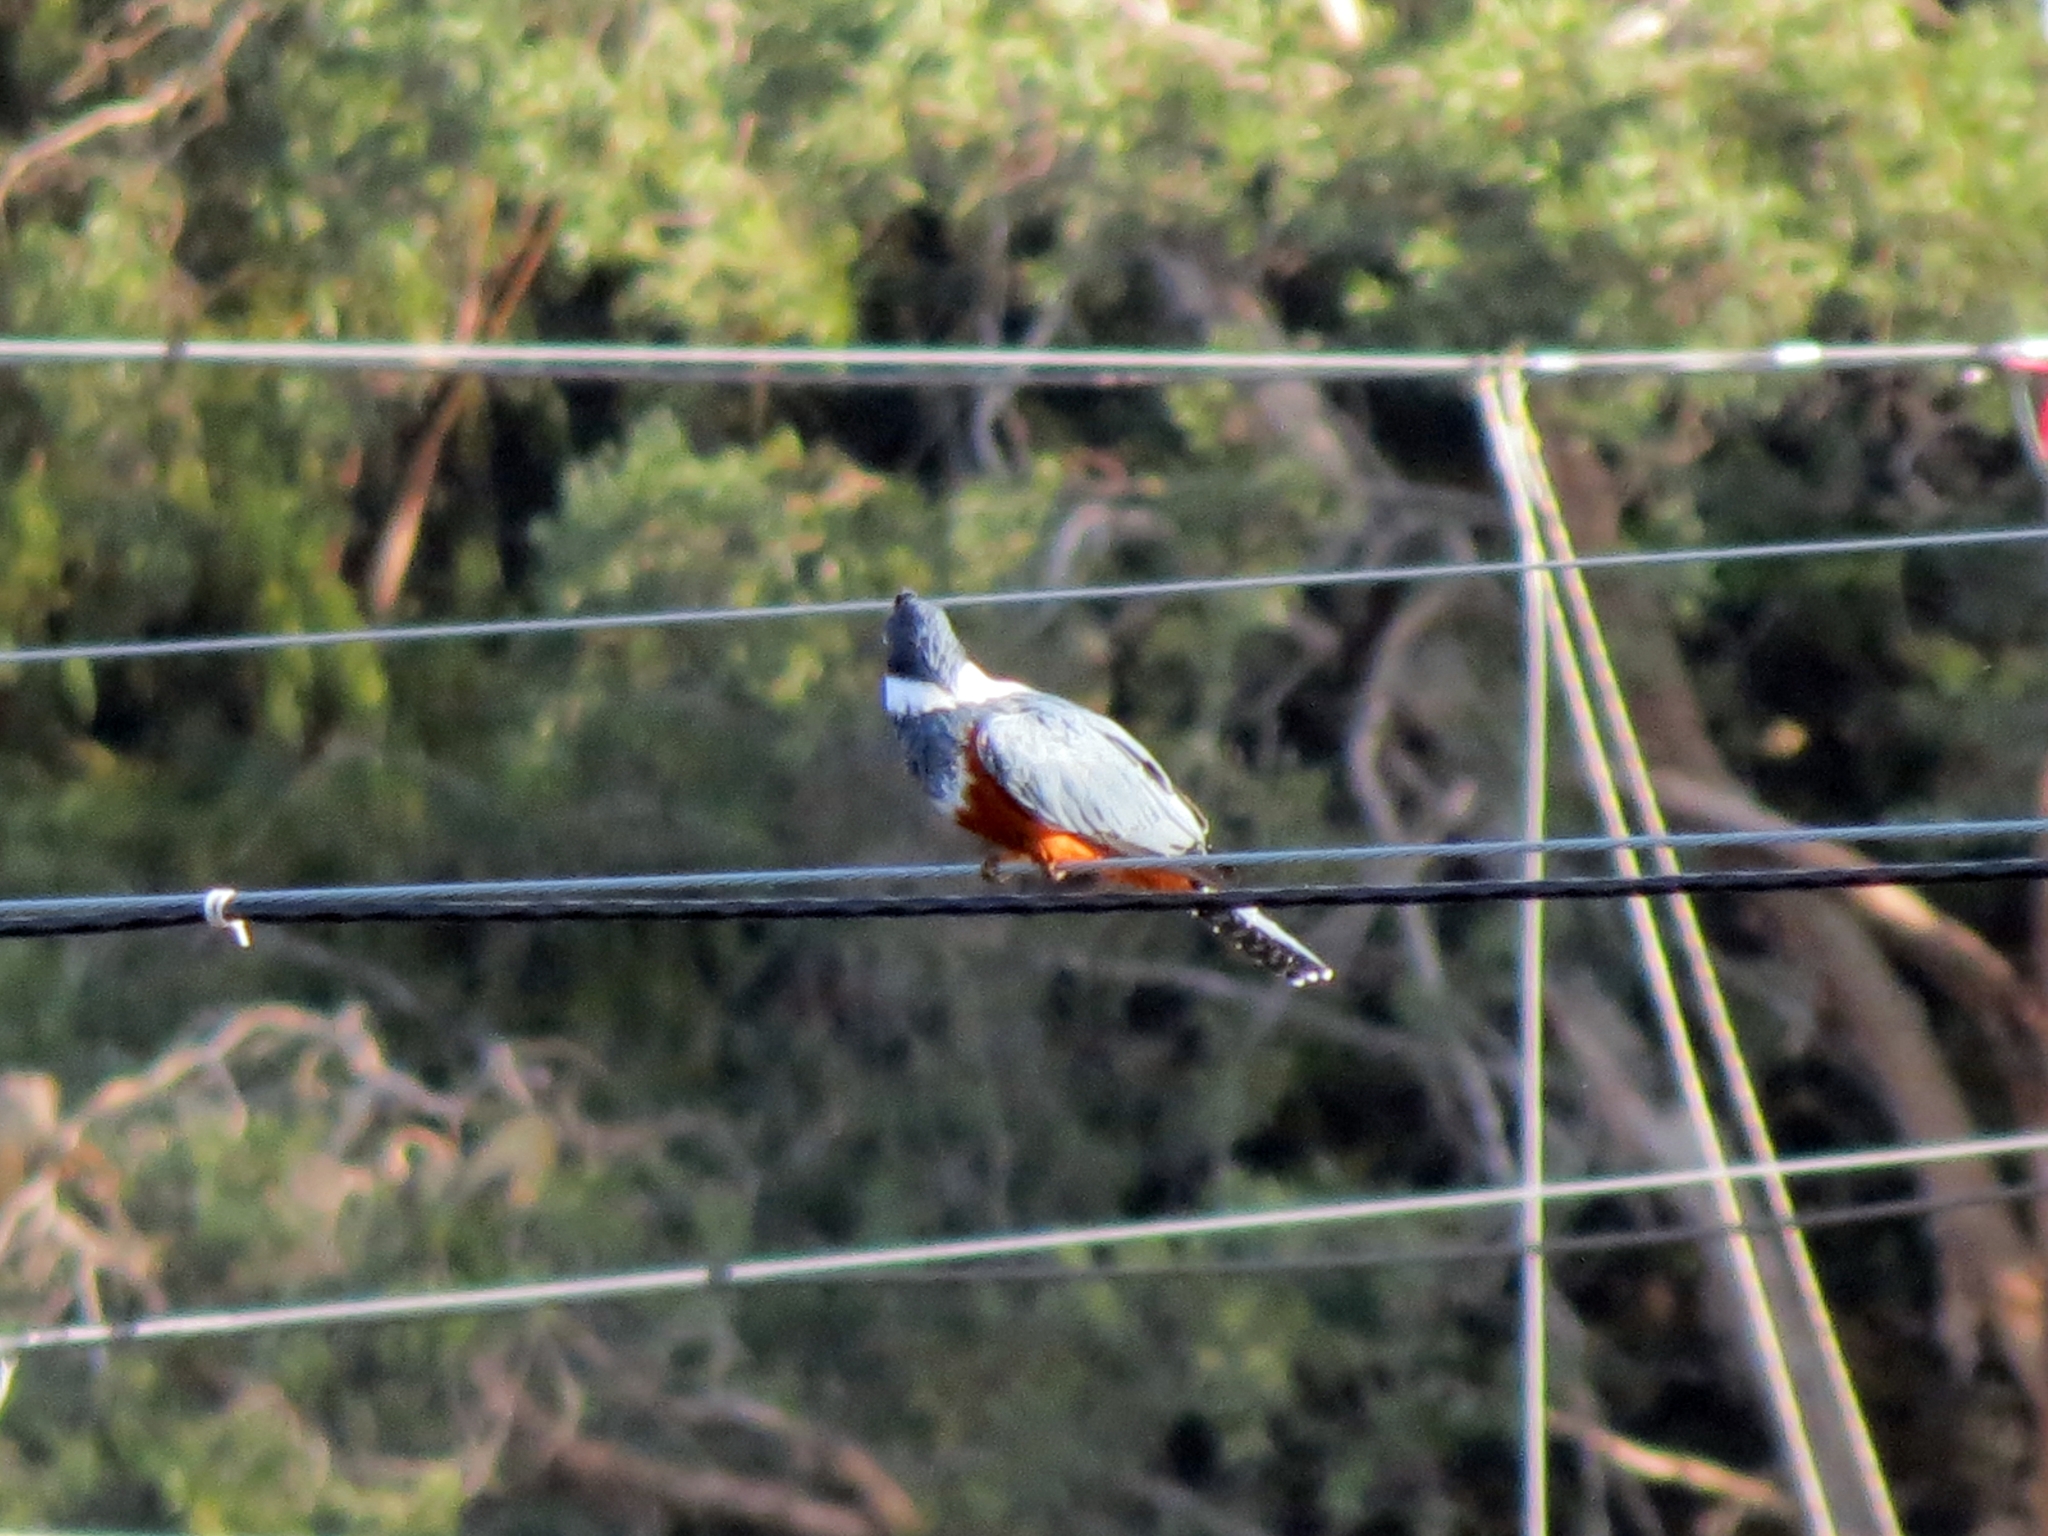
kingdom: Animalia
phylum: Chordata
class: Aves
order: Coraciiformes
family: Alcedinidae
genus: Megaceryle
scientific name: Megaceryle torquata
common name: Ringed kingfisher
